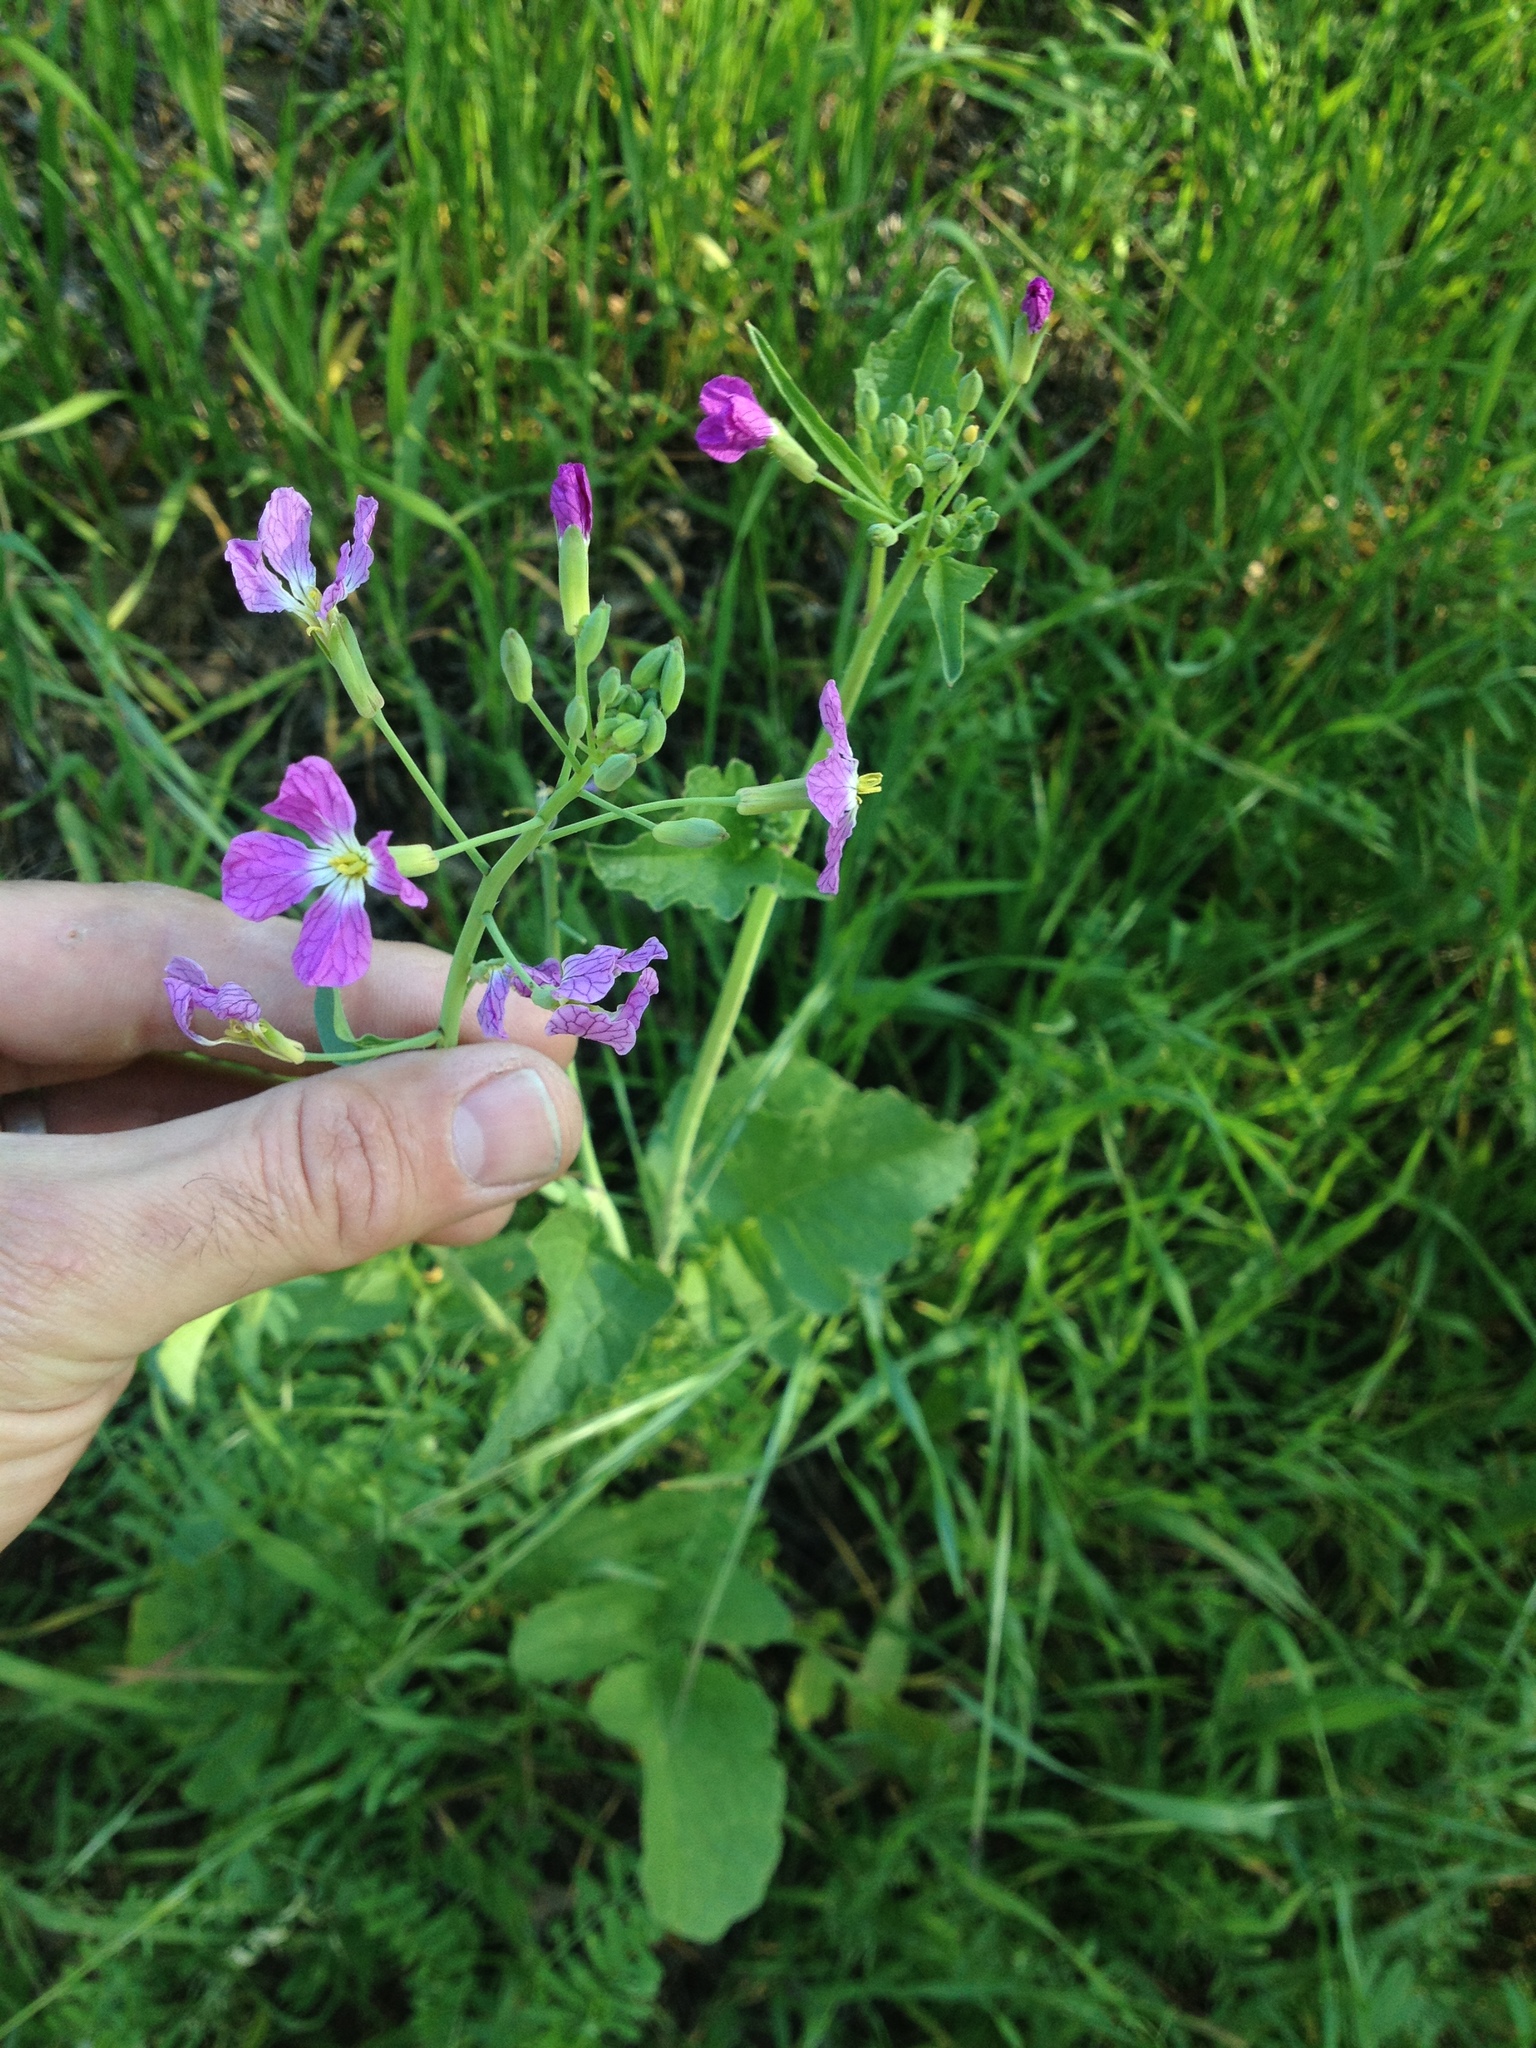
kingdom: Plantae
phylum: Tracheophyta
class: Magnoliopsida
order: Brassicales
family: Brassicaceae
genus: Raphanus
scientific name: Raphanus sativus
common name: Cultivated radish
